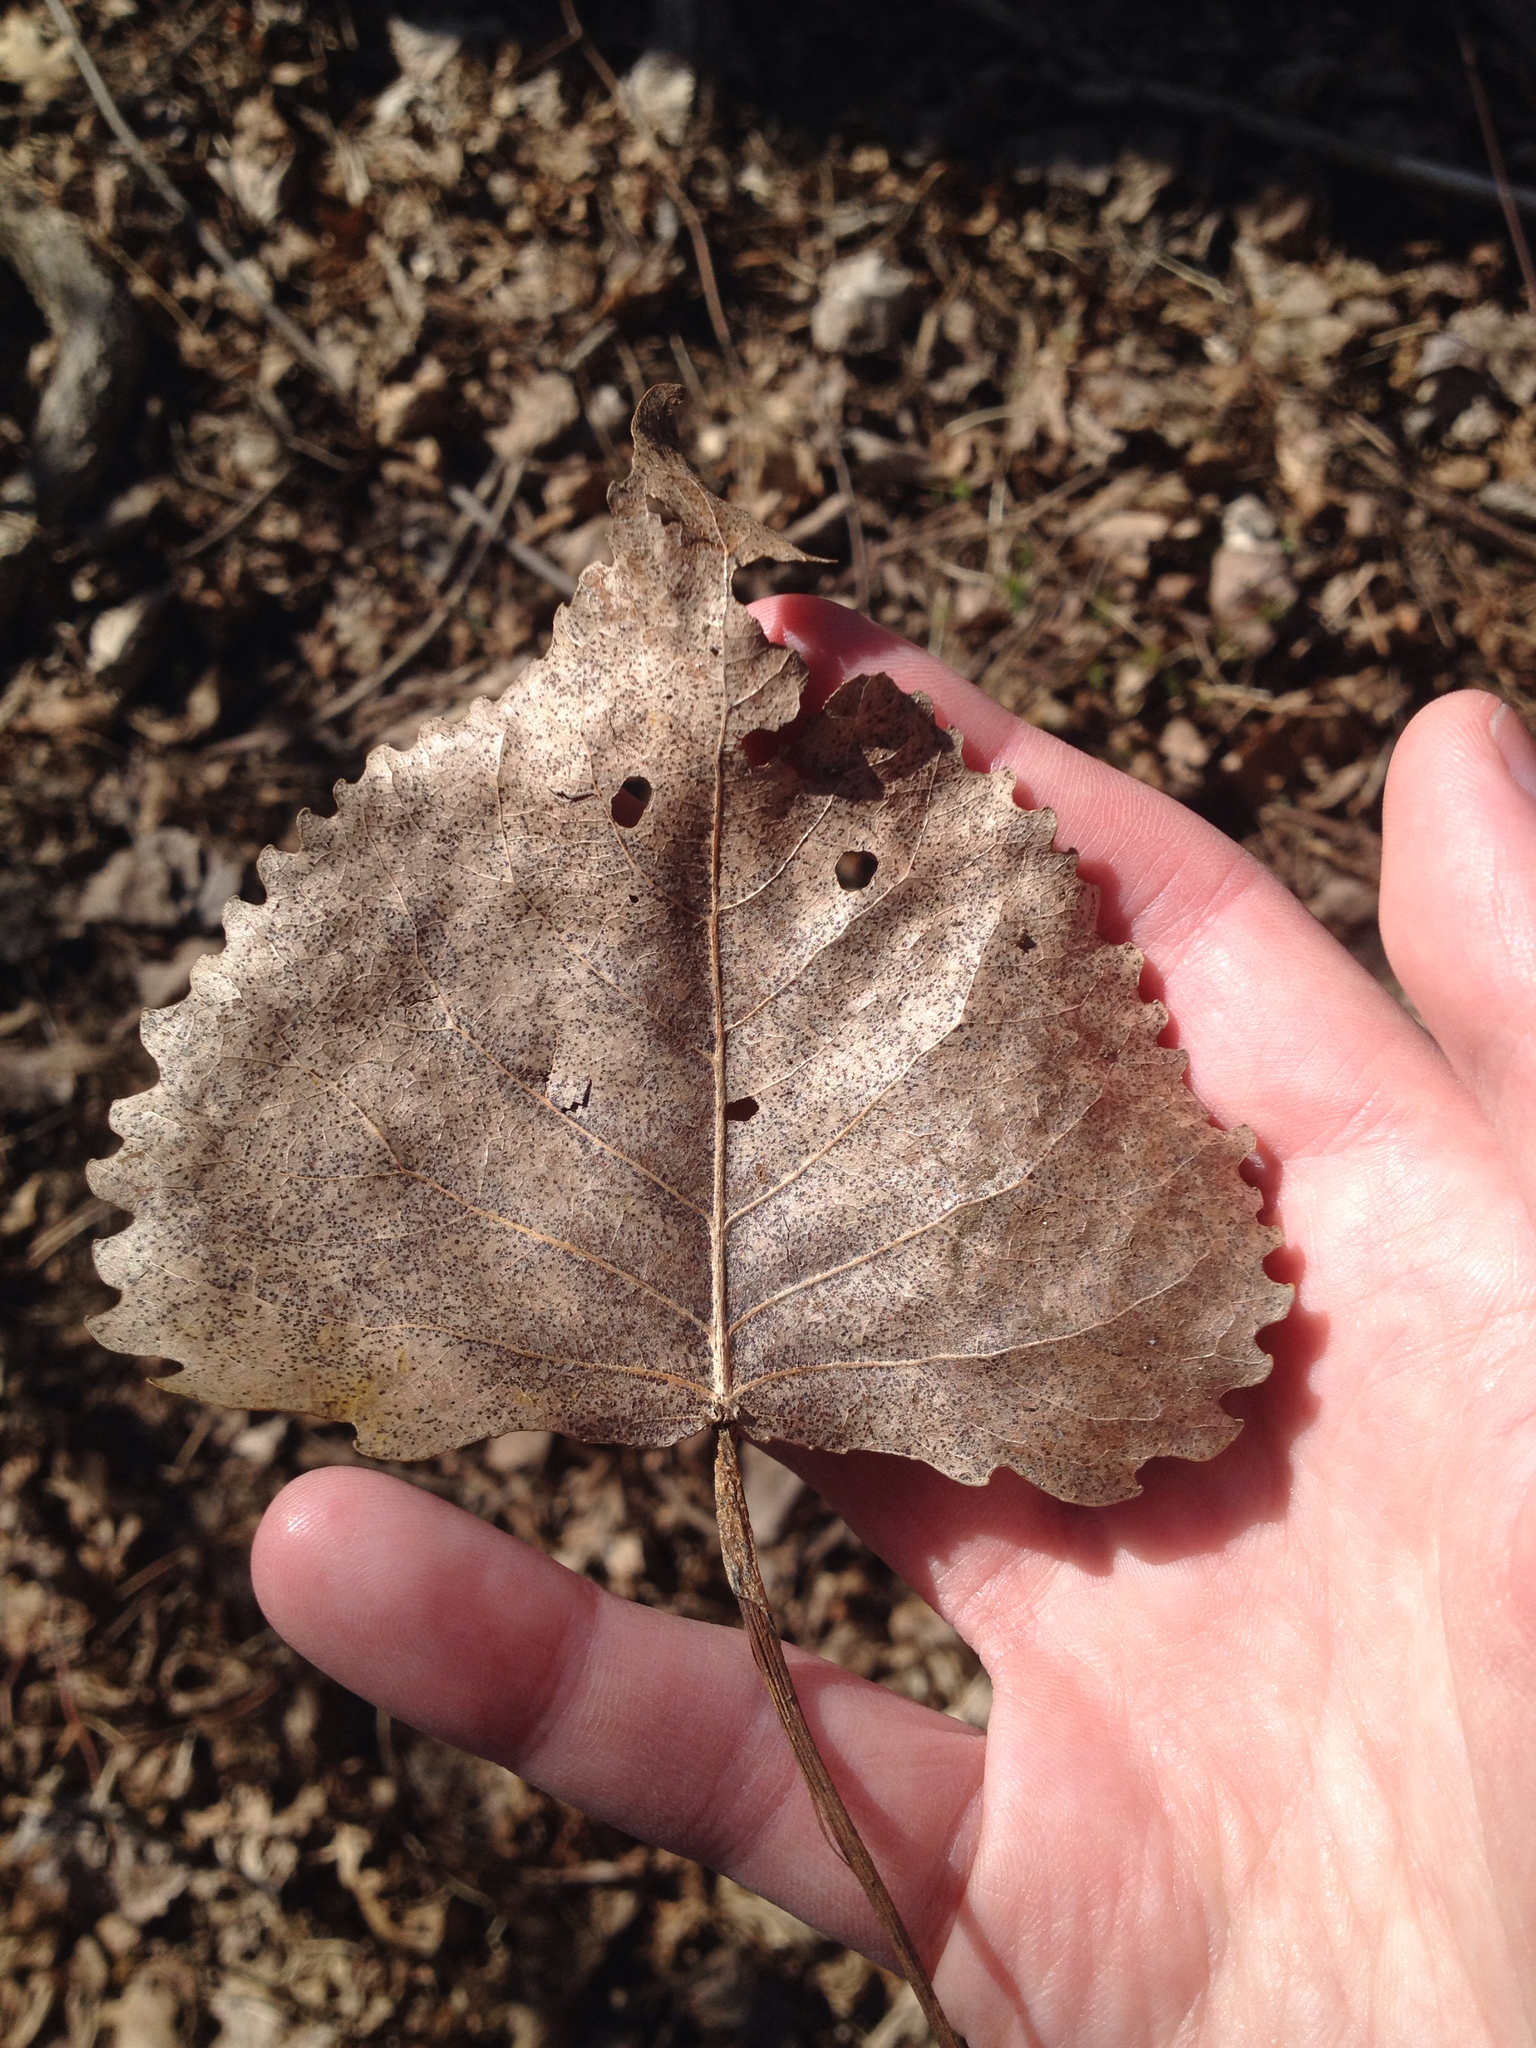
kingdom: Plantae
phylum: Tracheophyta
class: Magnoliopsida
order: Malpighiales
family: Salicaceae
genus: Populus
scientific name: Populus deltoides
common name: Eastern cottonwood
